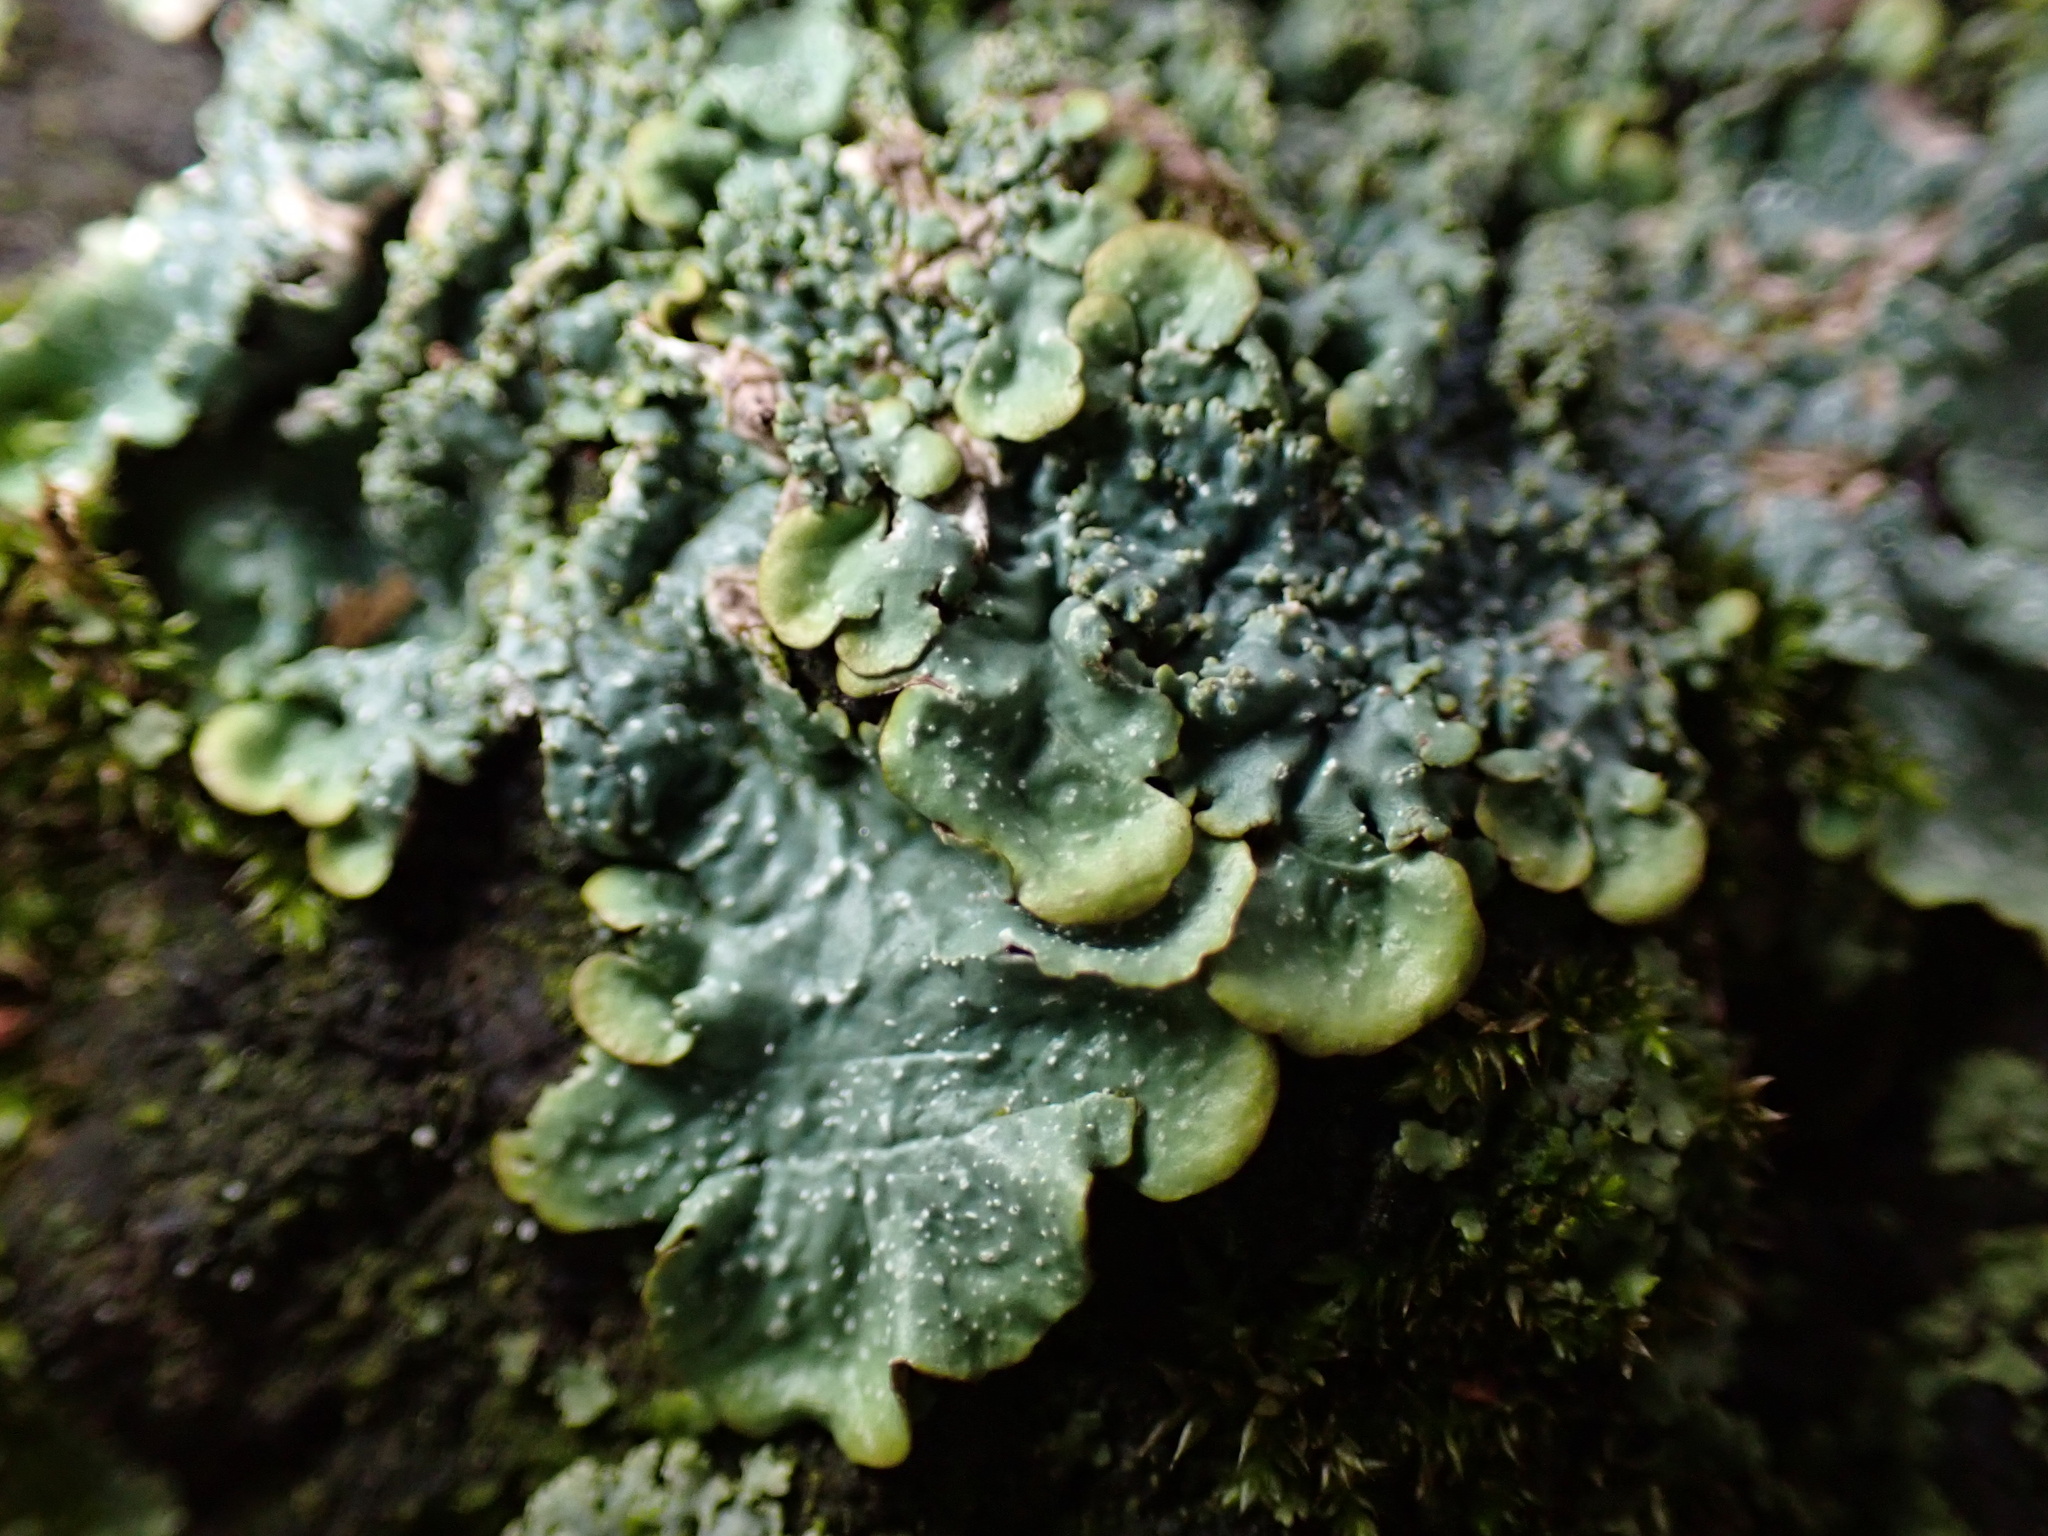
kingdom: Fungi
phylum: Ascomycota
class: Lecanoromycetes
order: Lecanorales
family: Parmeliaceae
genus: Punctelia
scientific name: Punctelia rudecta
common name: Rough speckled shield lichen
